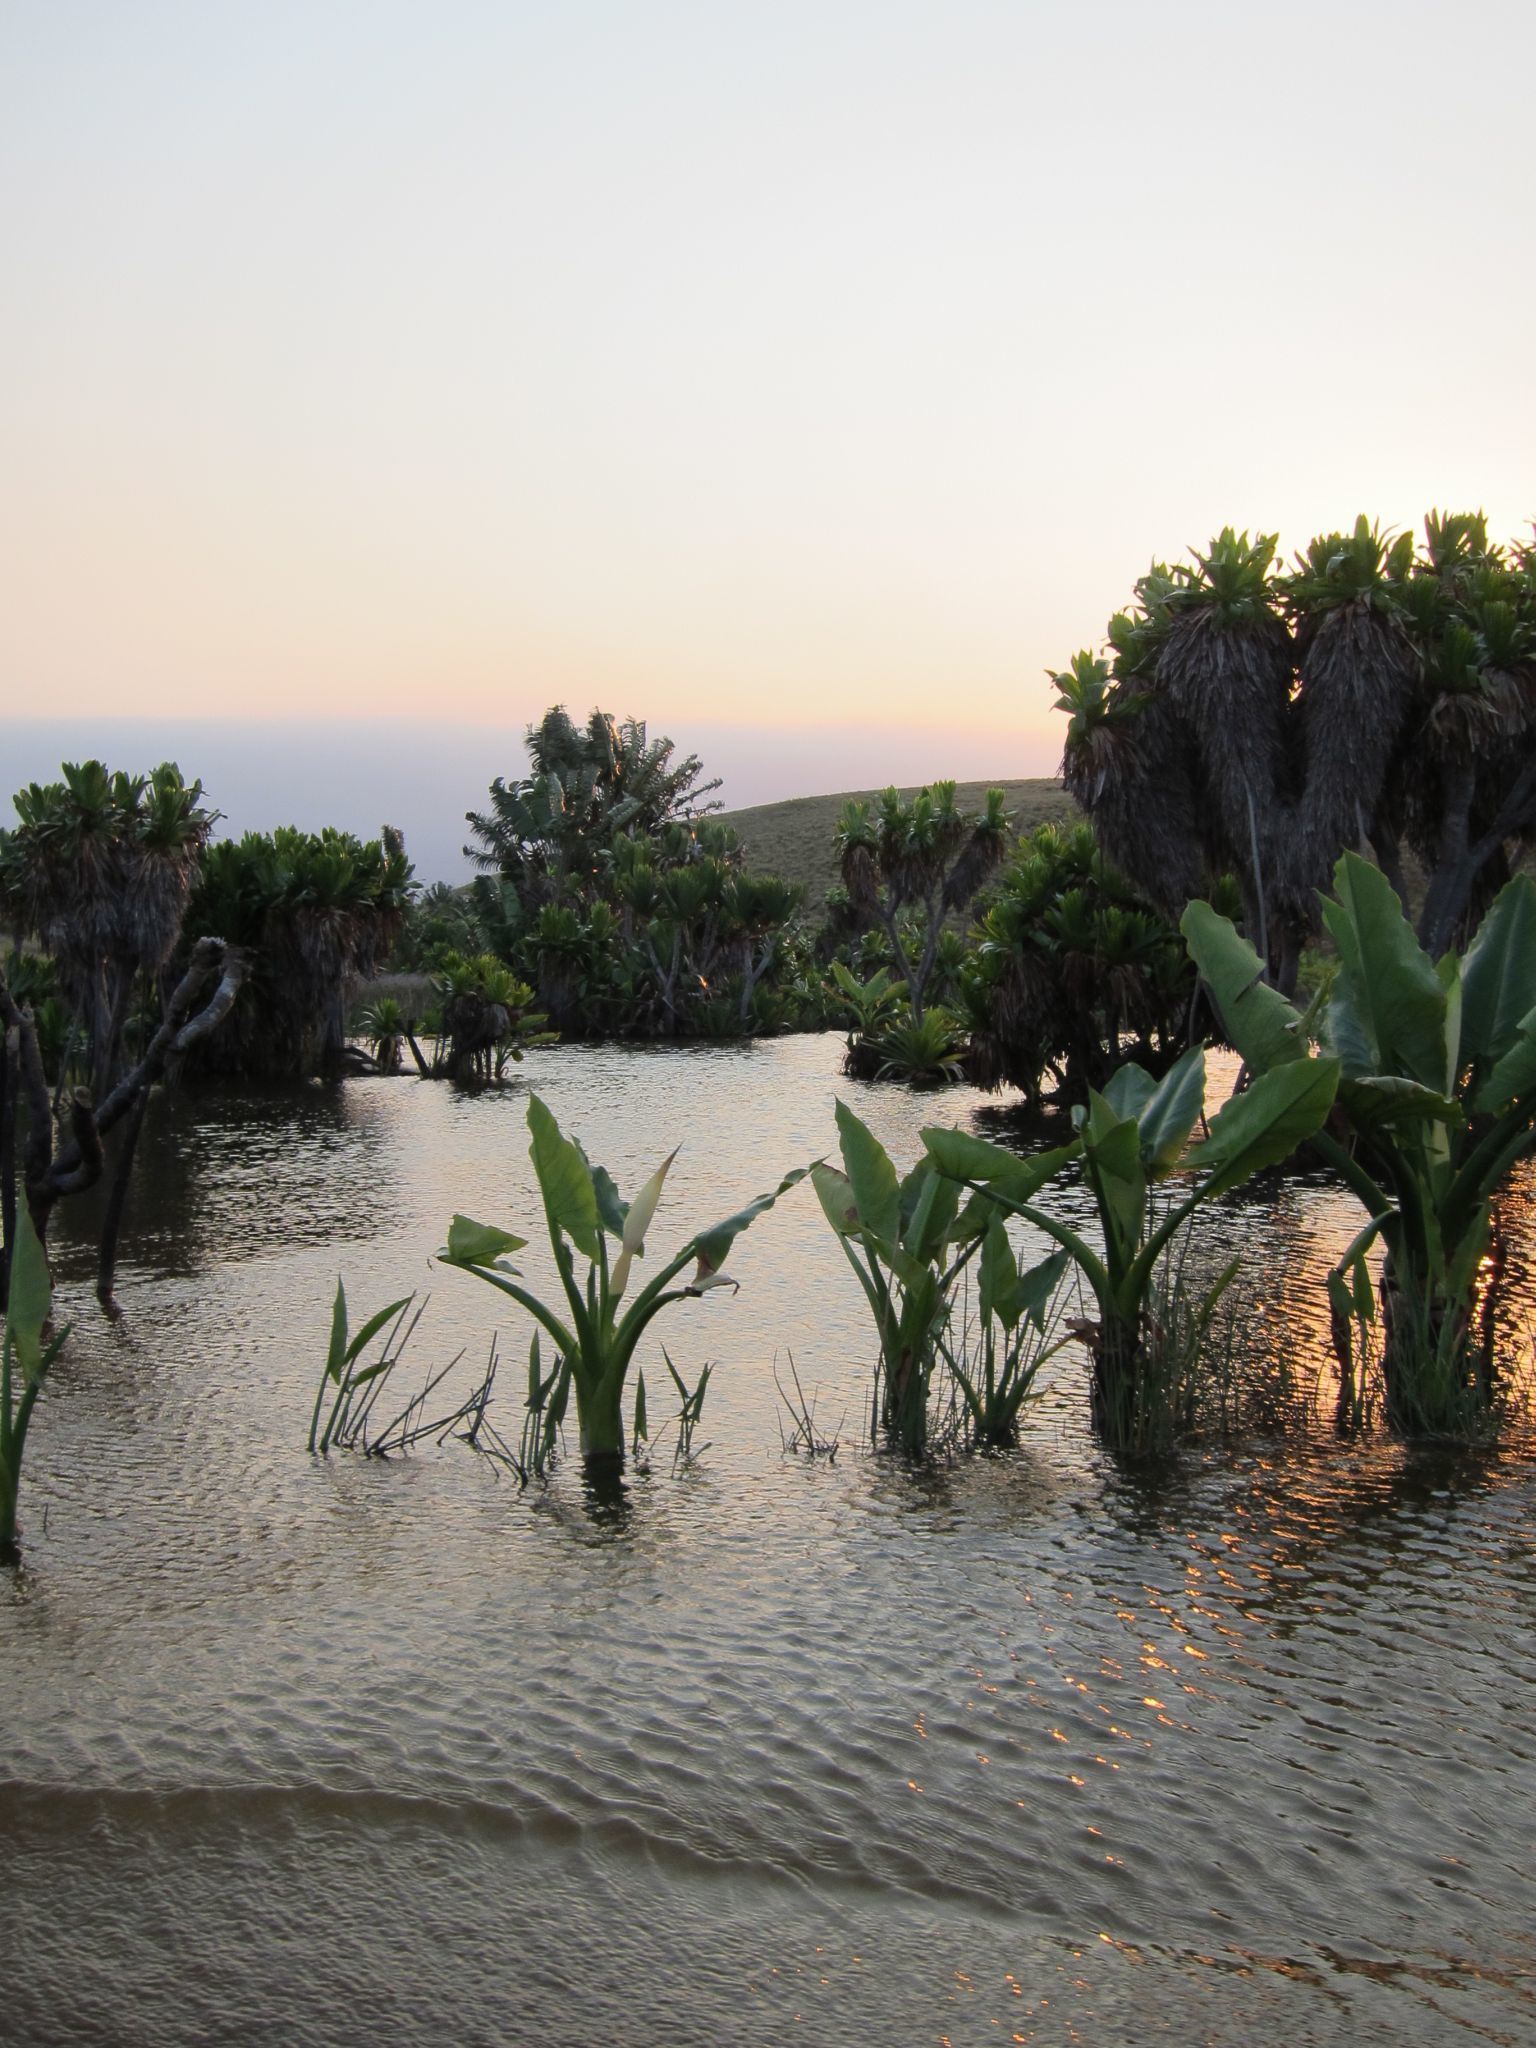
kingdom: Plantae
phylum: Tracheophyta
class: Liliopsida
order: Alismatales
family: Araceae
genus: Typhonodorum
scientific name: Typhonodorum lindleyanum
